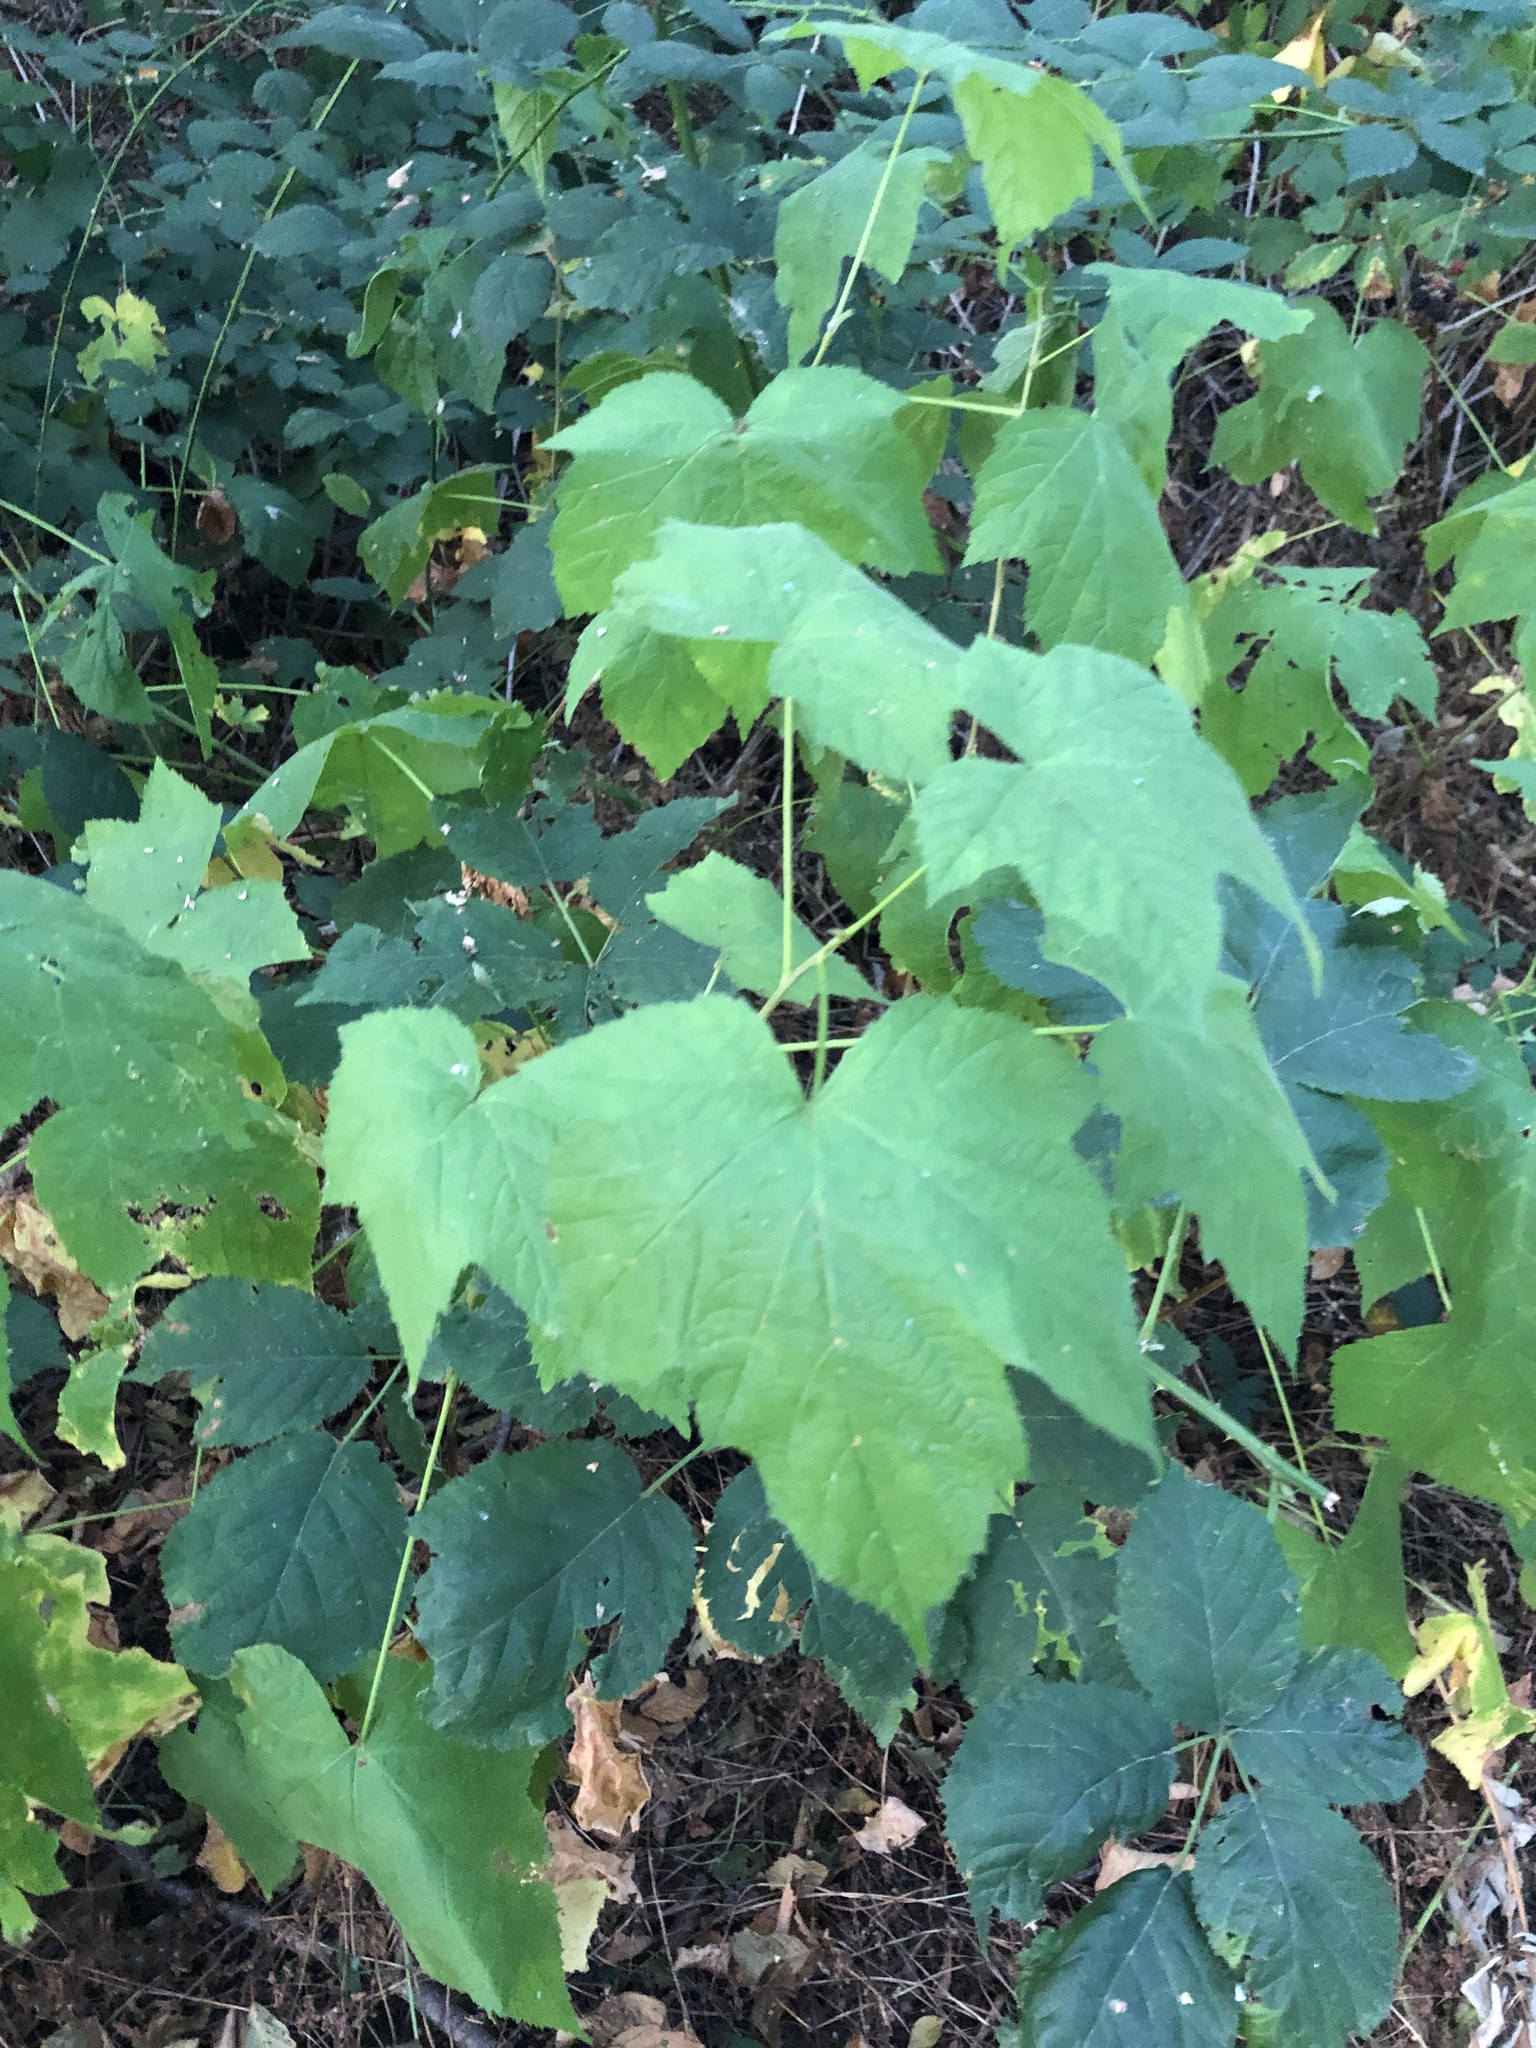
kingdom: Plantae
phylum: Tracheophyta
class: Magnoliopsida
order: Rosales
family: Rosaceae
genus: Rubus
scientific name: Rubus parviflorus
